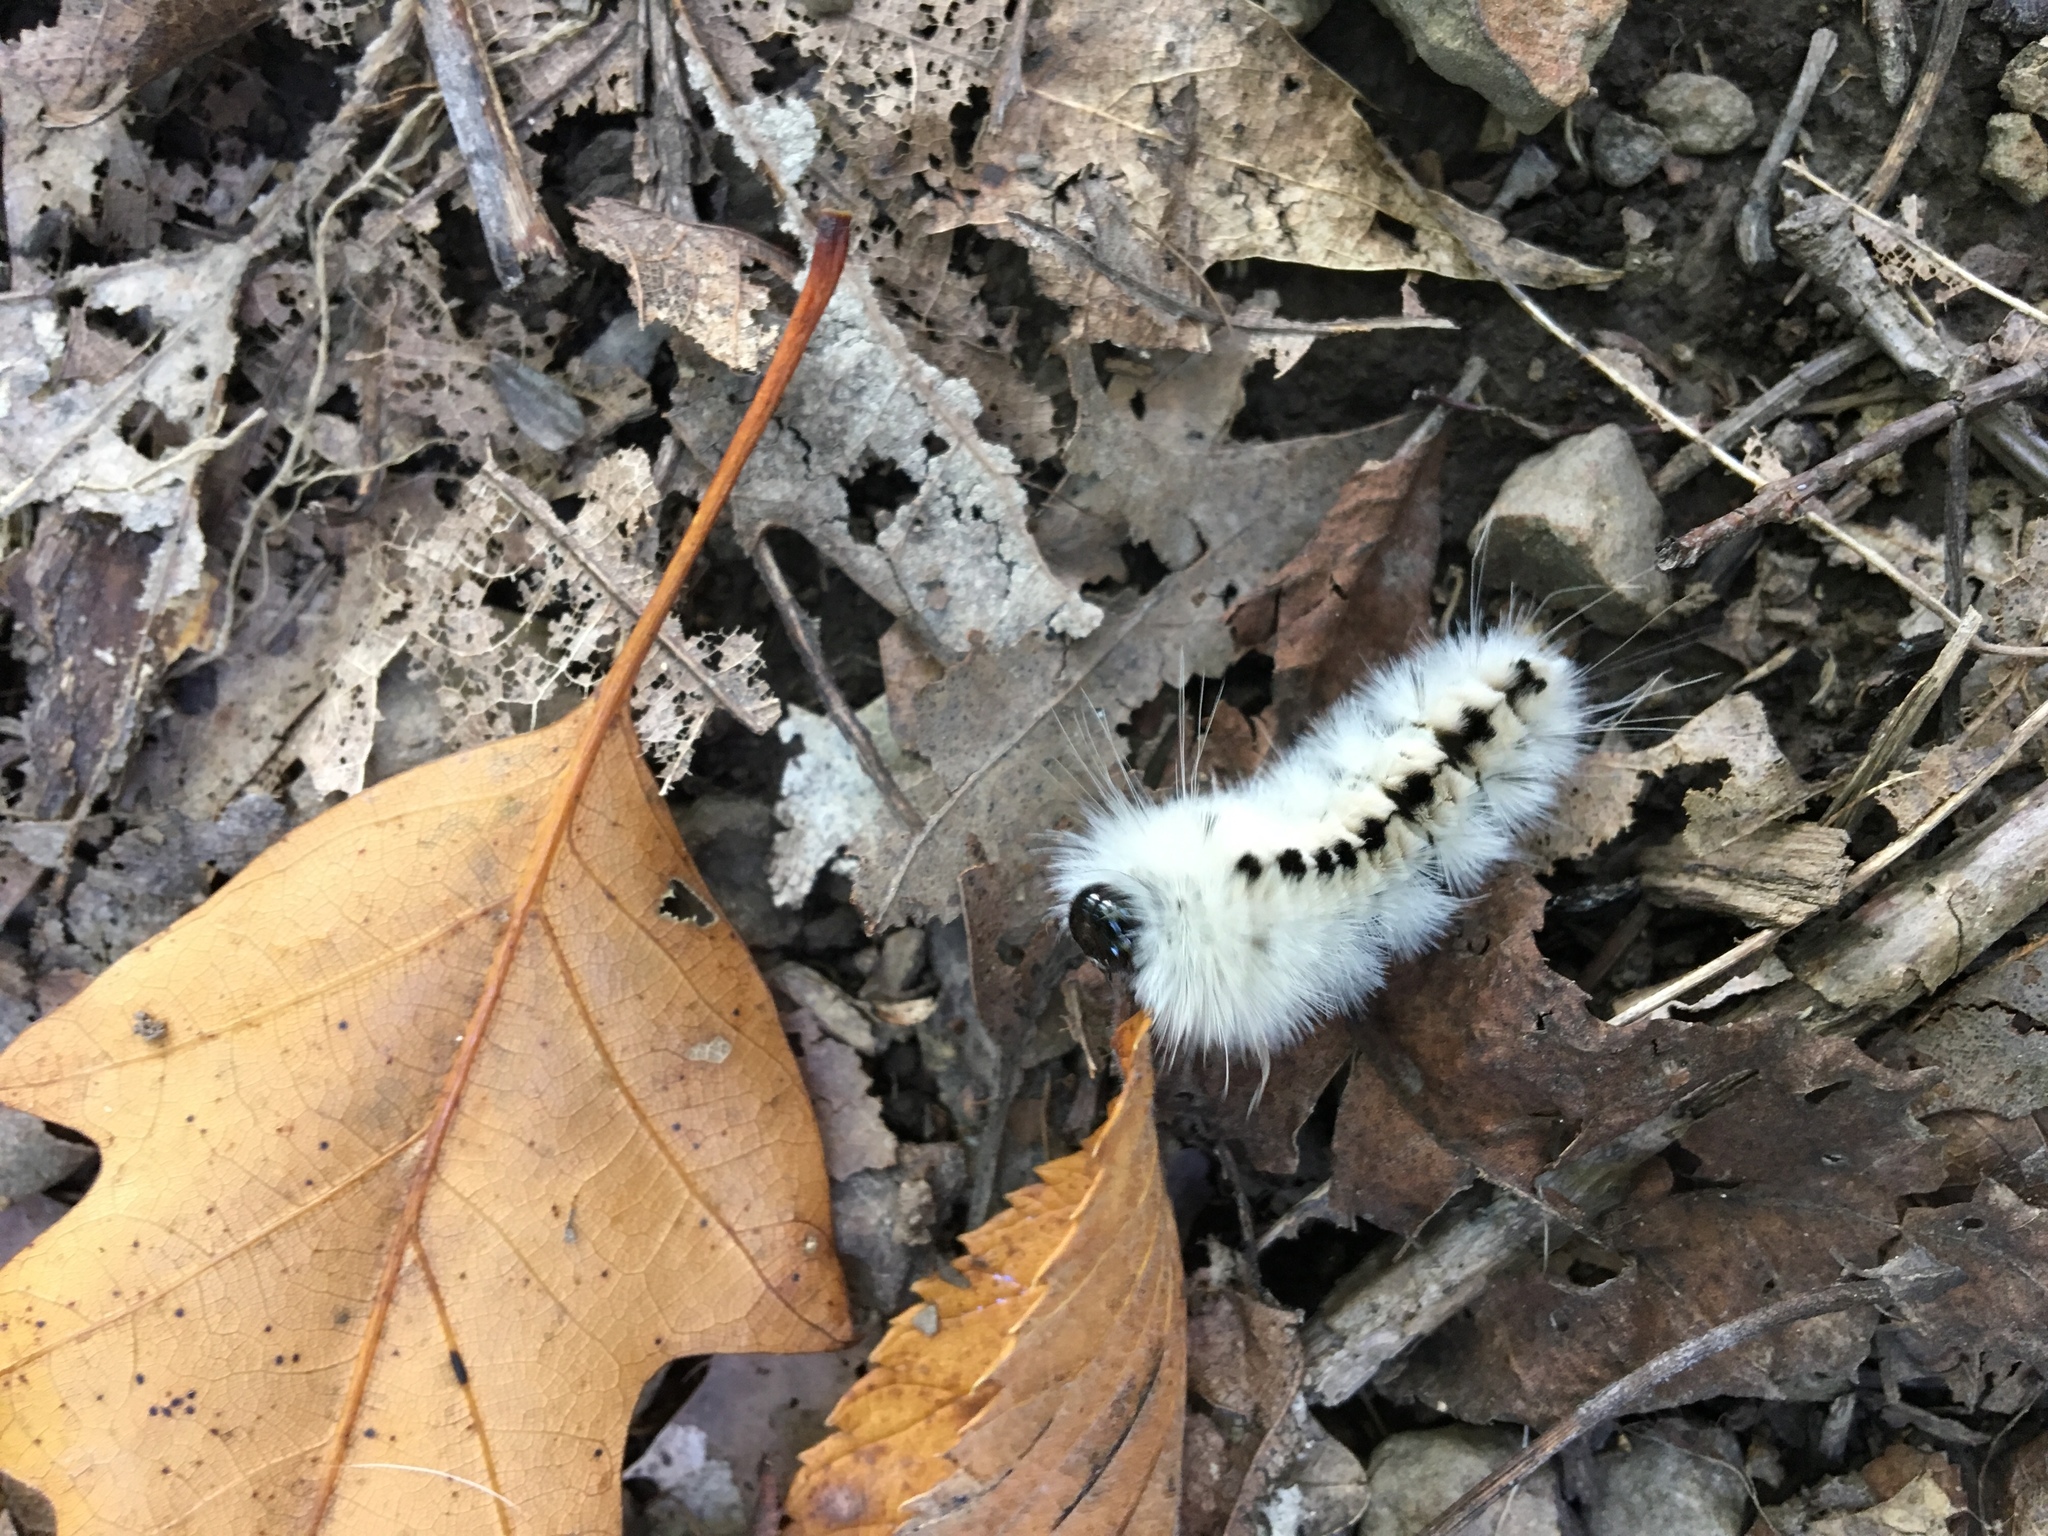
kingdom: Animalia
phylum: Arthropoda
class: Insecta
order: Lepidoptera
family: Erebidae
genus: Lophocampa
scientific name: Lophocampa caryae
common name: Hickory tussock moth
